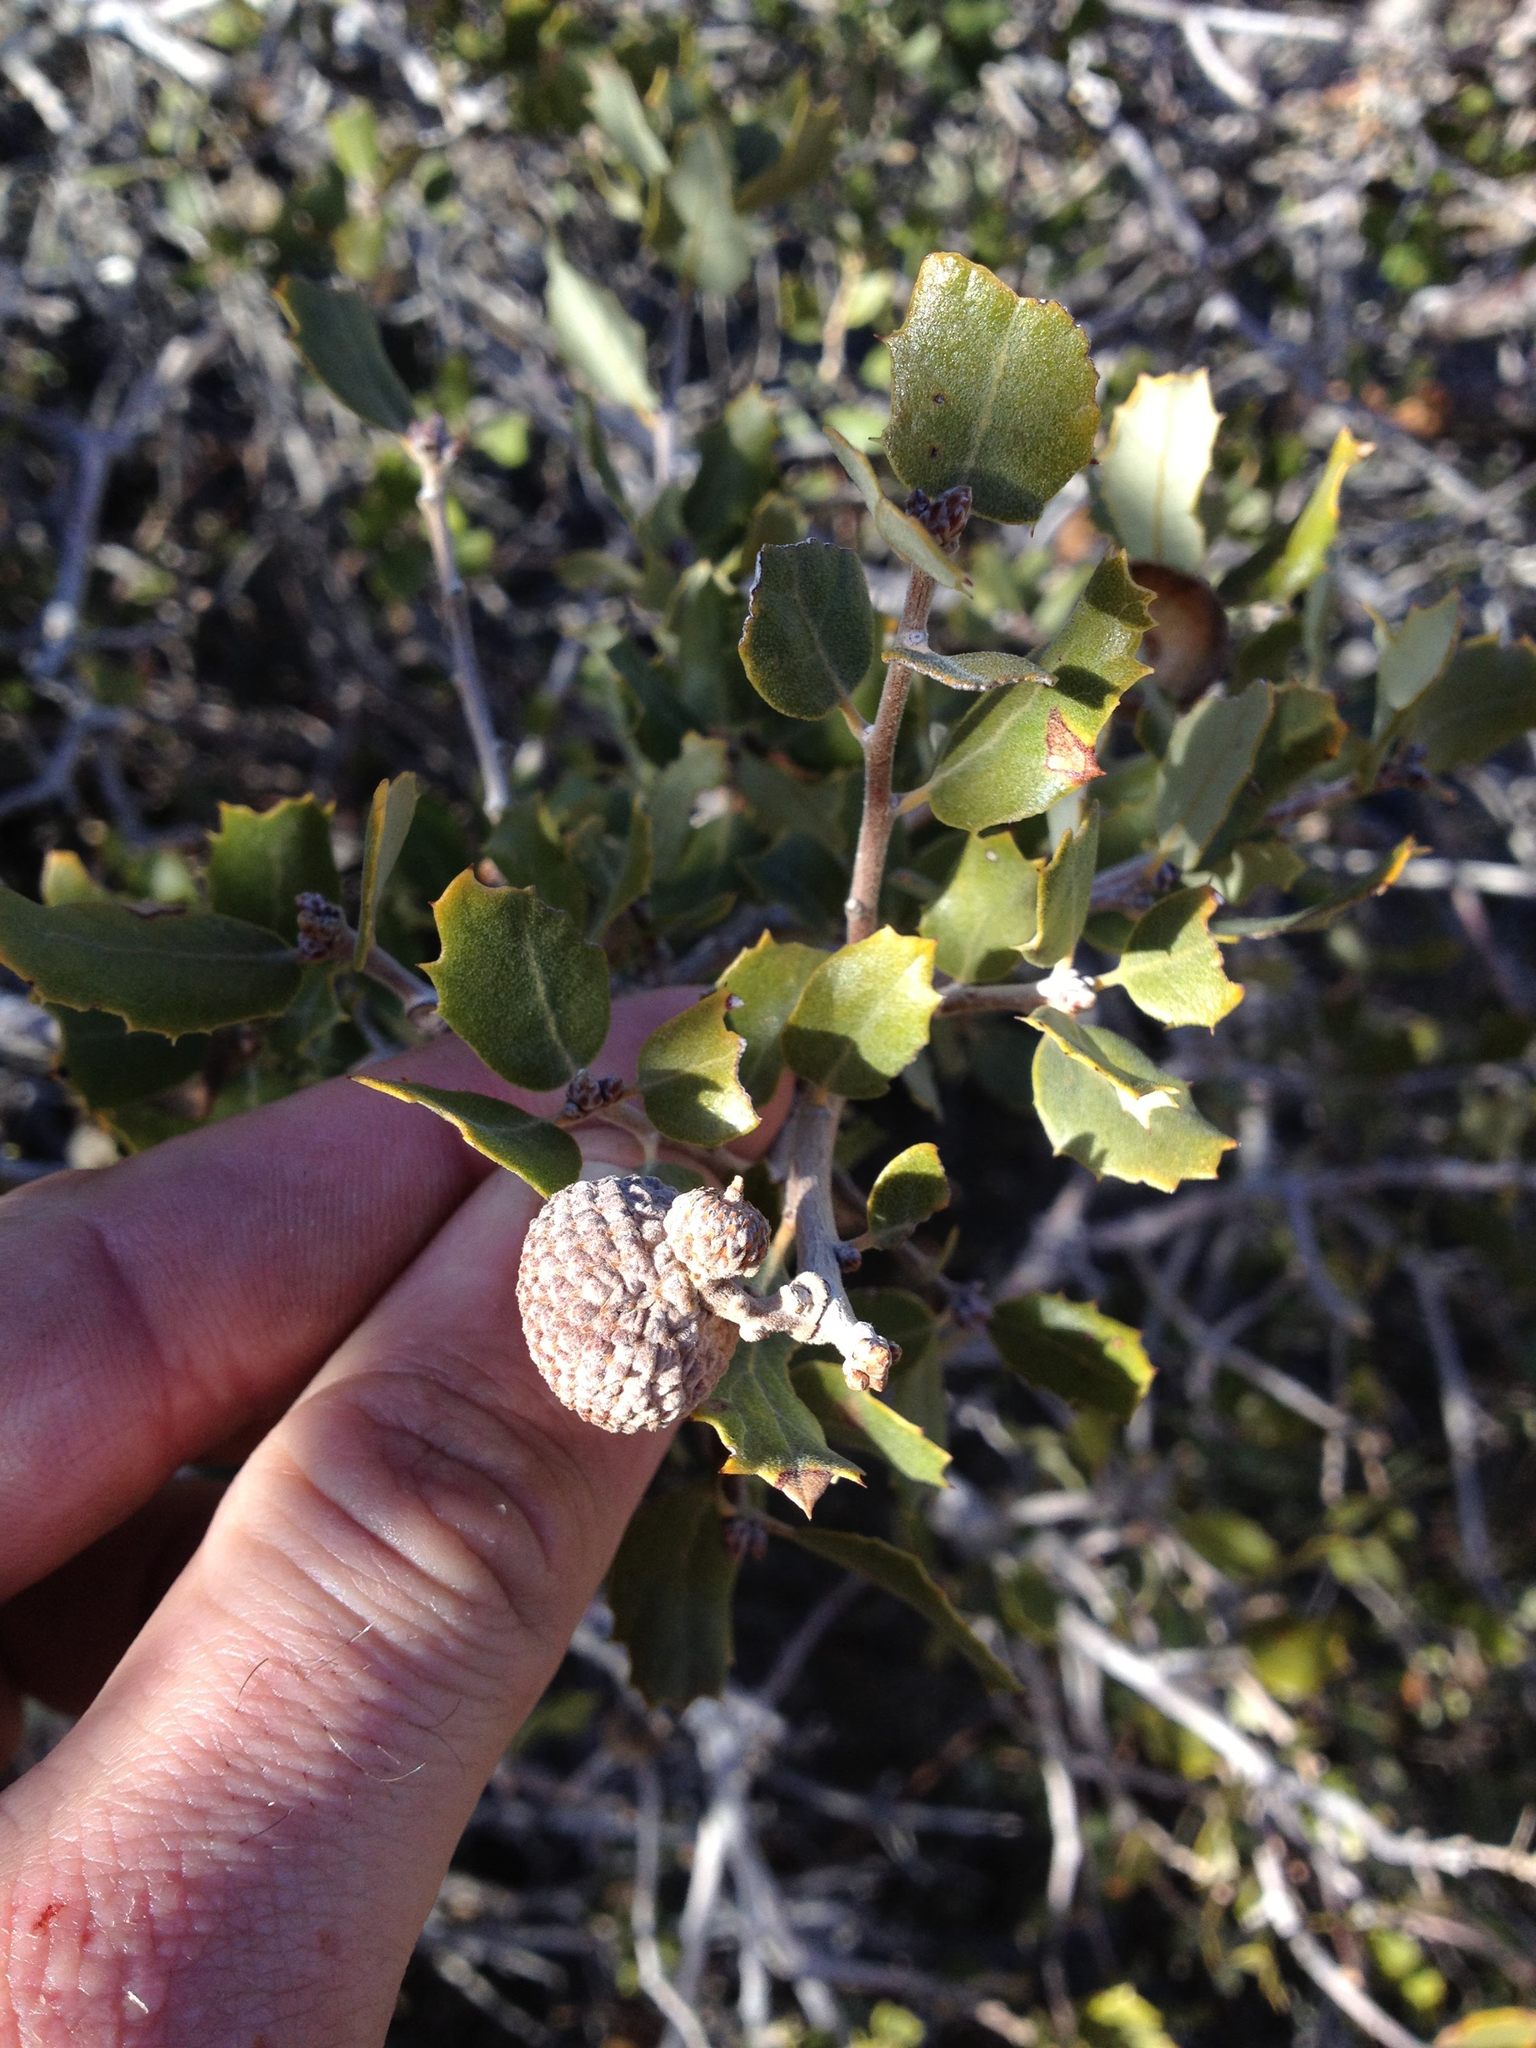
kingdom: Plantae
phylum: Tracheophyta
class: Magnoliopsida
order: Fagales
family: Fagaceae
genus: Quercus
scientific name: Quercus cornelius-mulleri
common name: Muller oak
